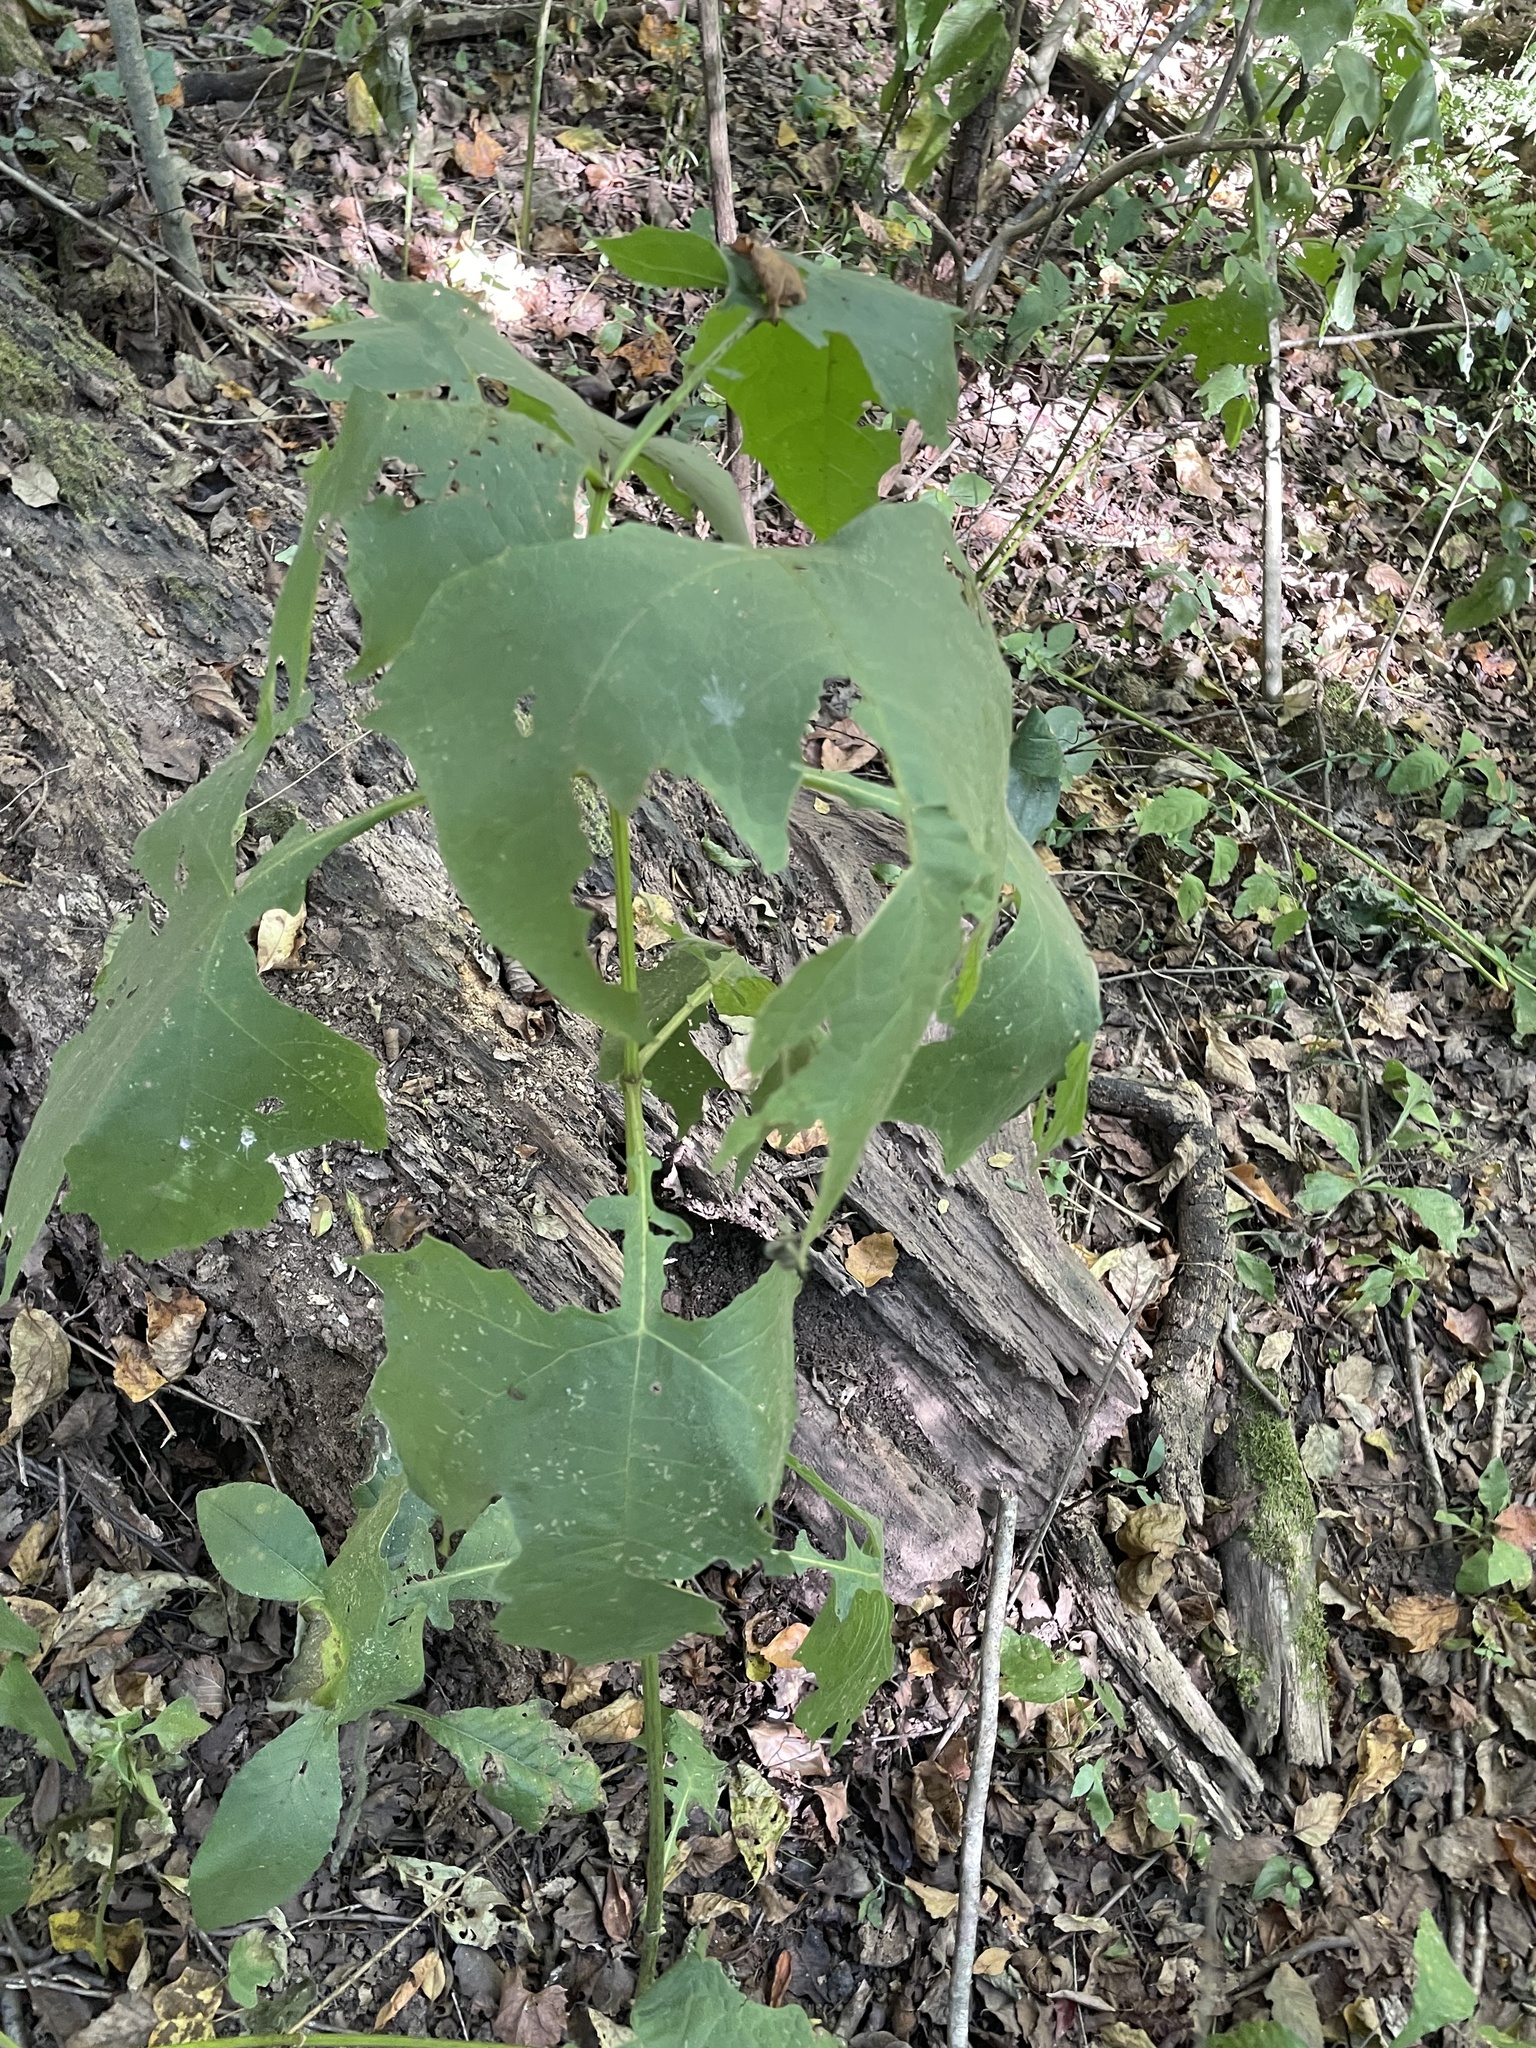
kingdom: Plantae
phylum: Tracheophyta
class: Magnoliopsida
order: Asterales
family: Asteraceae
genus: Smallanthus
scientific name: Smallanthus uvedalia
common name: Bear's-foot
